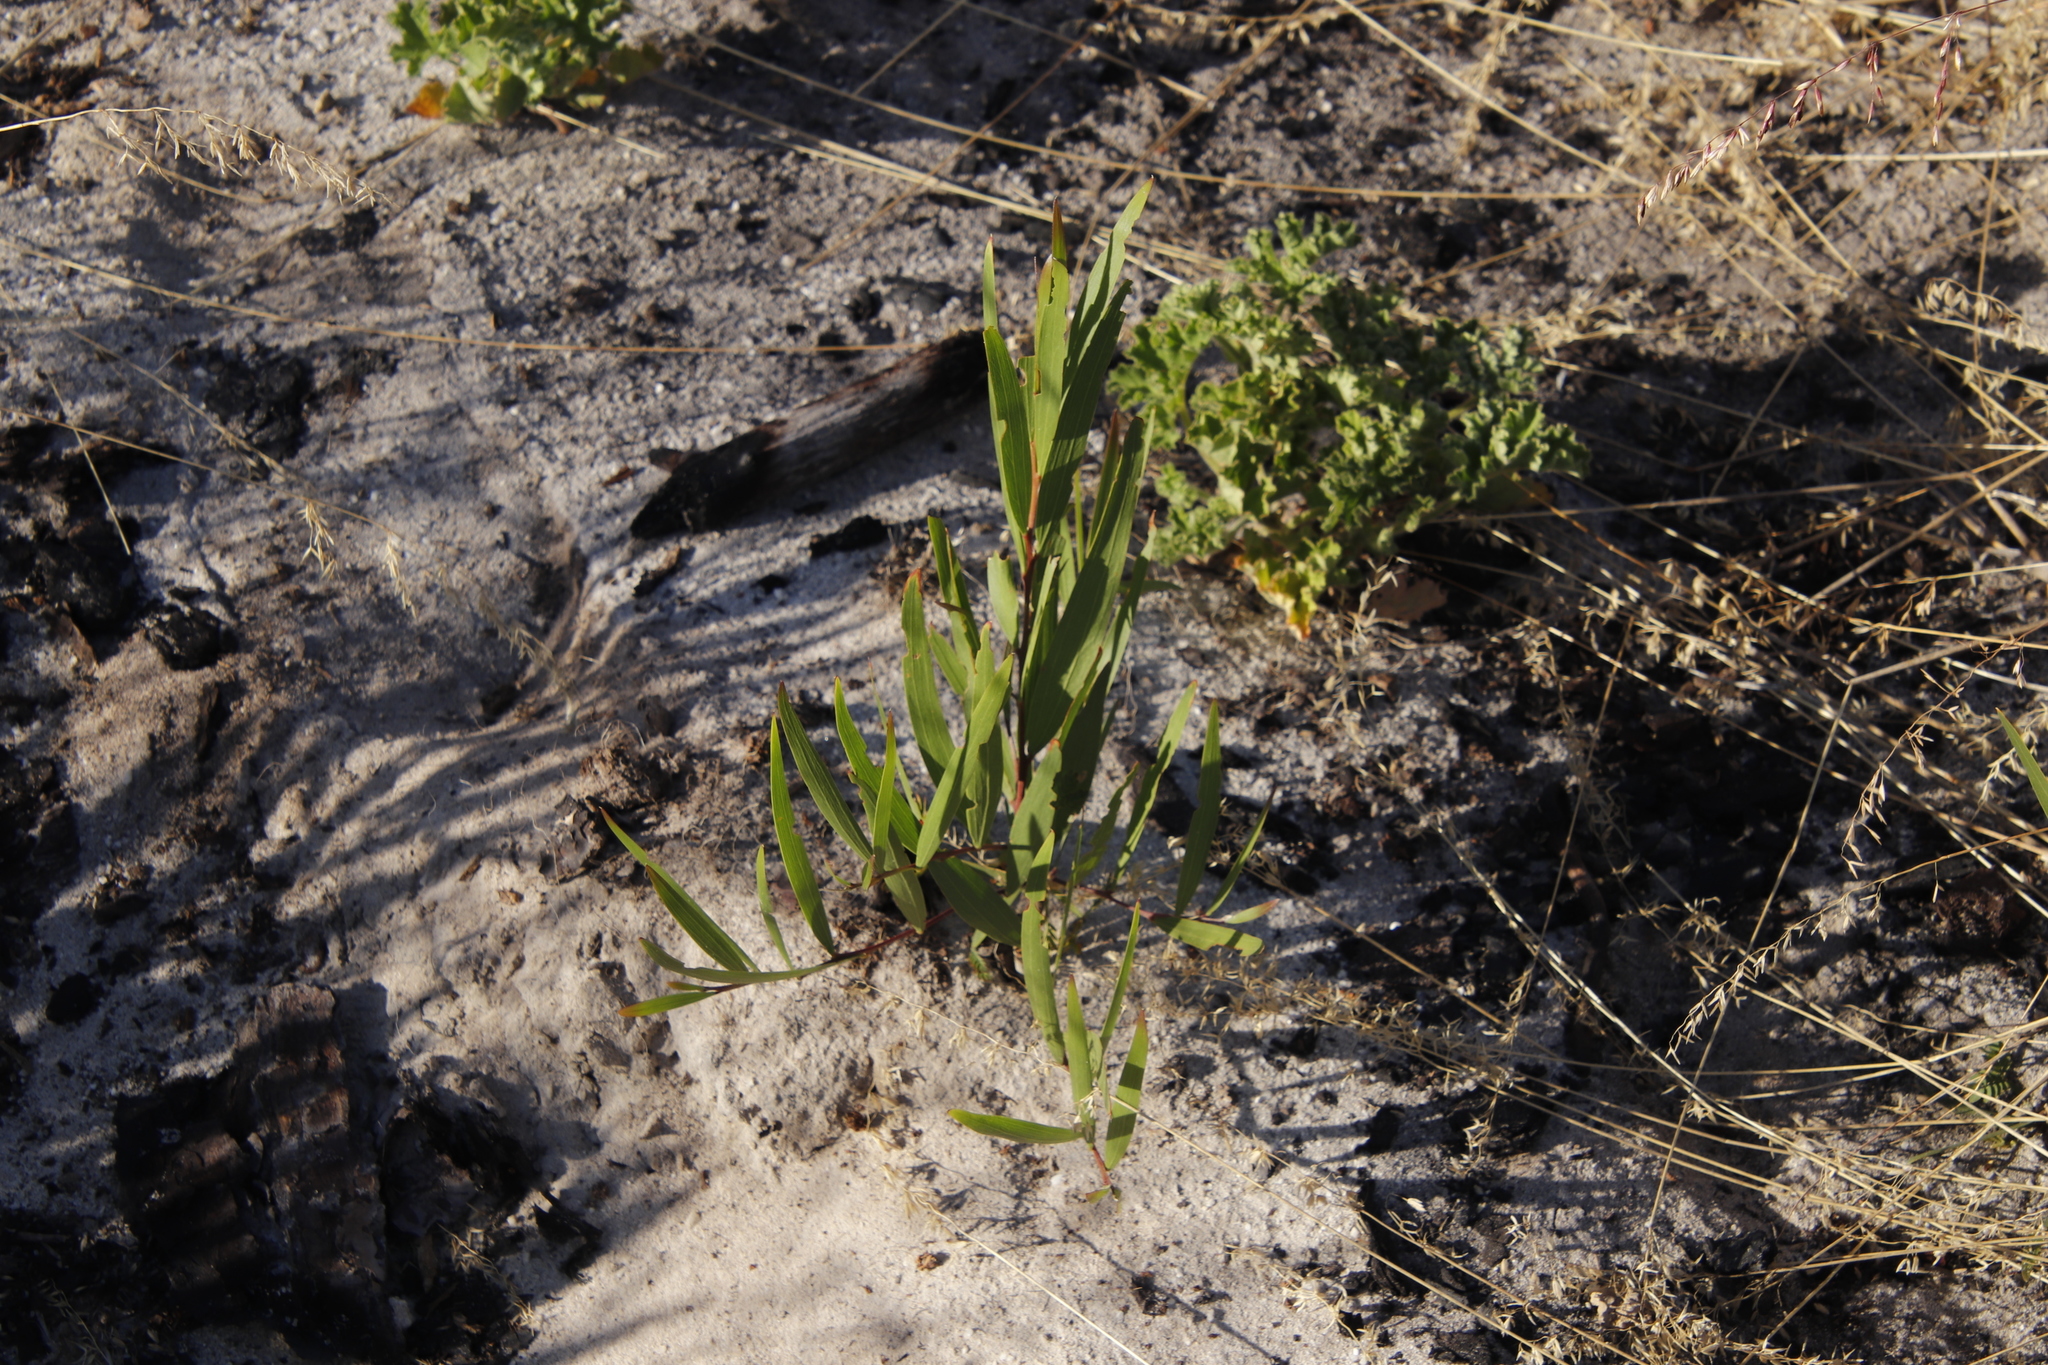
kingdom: Plantae
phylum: Tracheophyta
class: Magnoliopsida
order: Fabales
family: Fabaceae
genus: Acacia
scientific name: Acacia longifolia
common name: Sydney golden wattle
